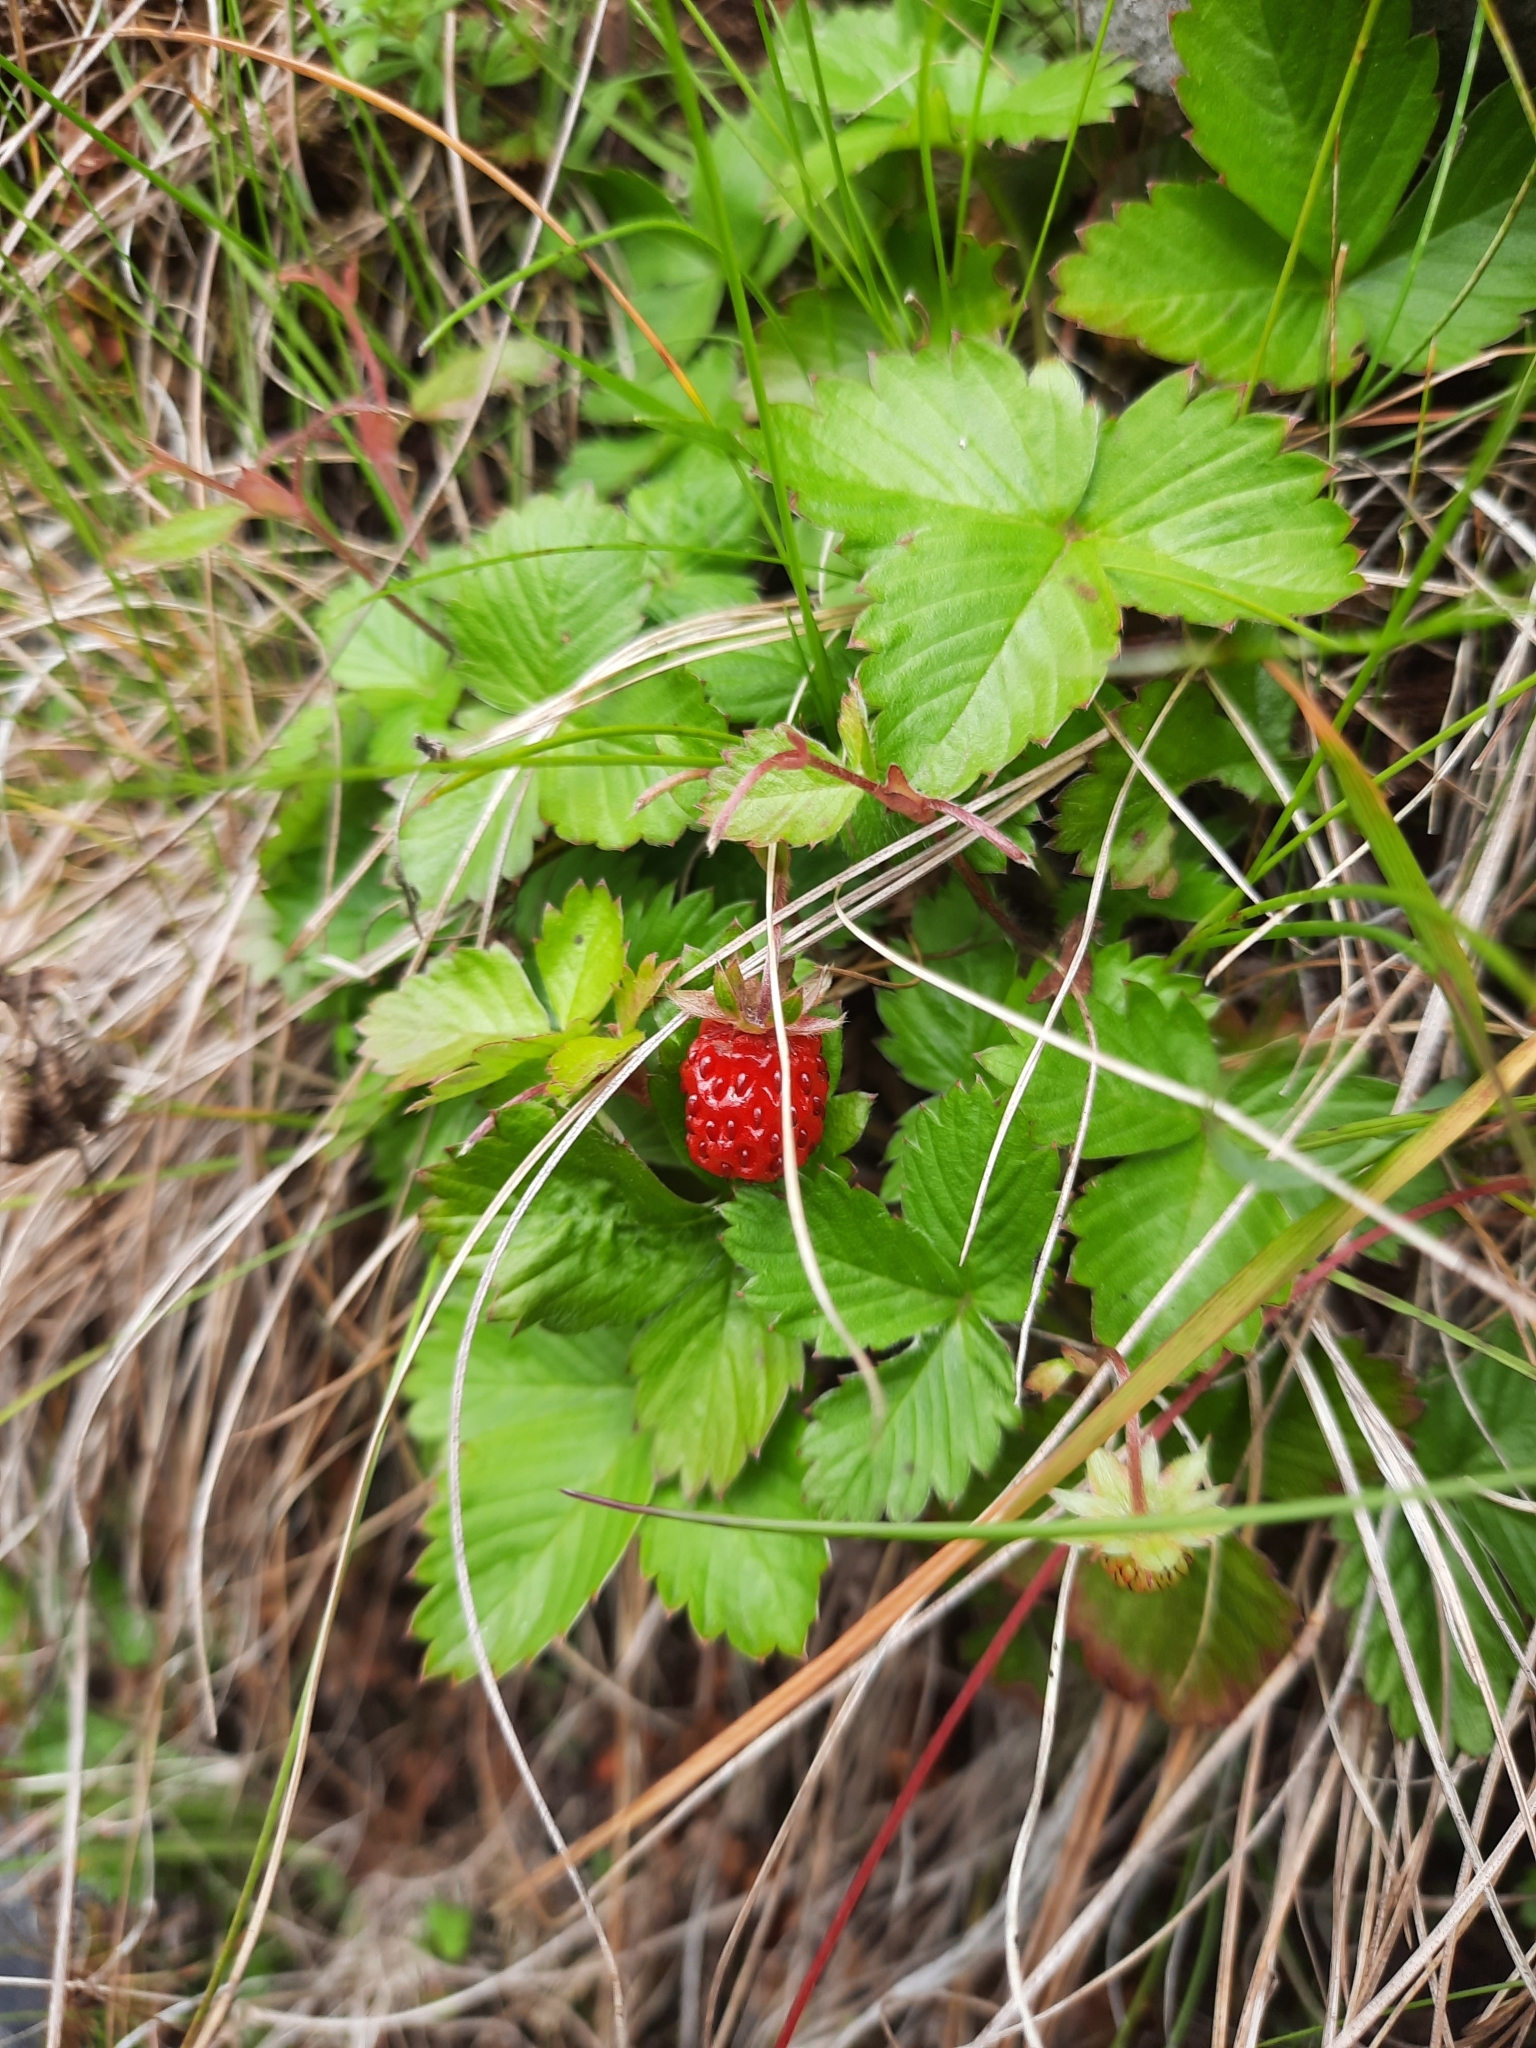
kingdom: Plantae
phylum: Tracheophyta
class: Magnoliopsida
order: Rosales
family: Rosaceae
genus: Fragaria
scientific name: Fragaria vesca
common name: Wild strawberry
